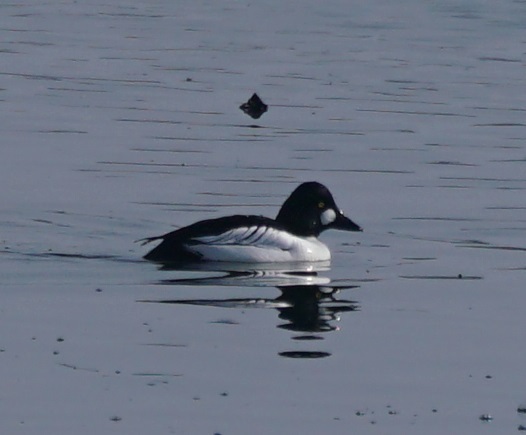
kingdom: Animalia
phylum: Chordata
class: Aves
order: Anseriformes
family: Anatidae
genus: Bucephala
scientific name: Bucephala clangula
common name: Common goldeneye
